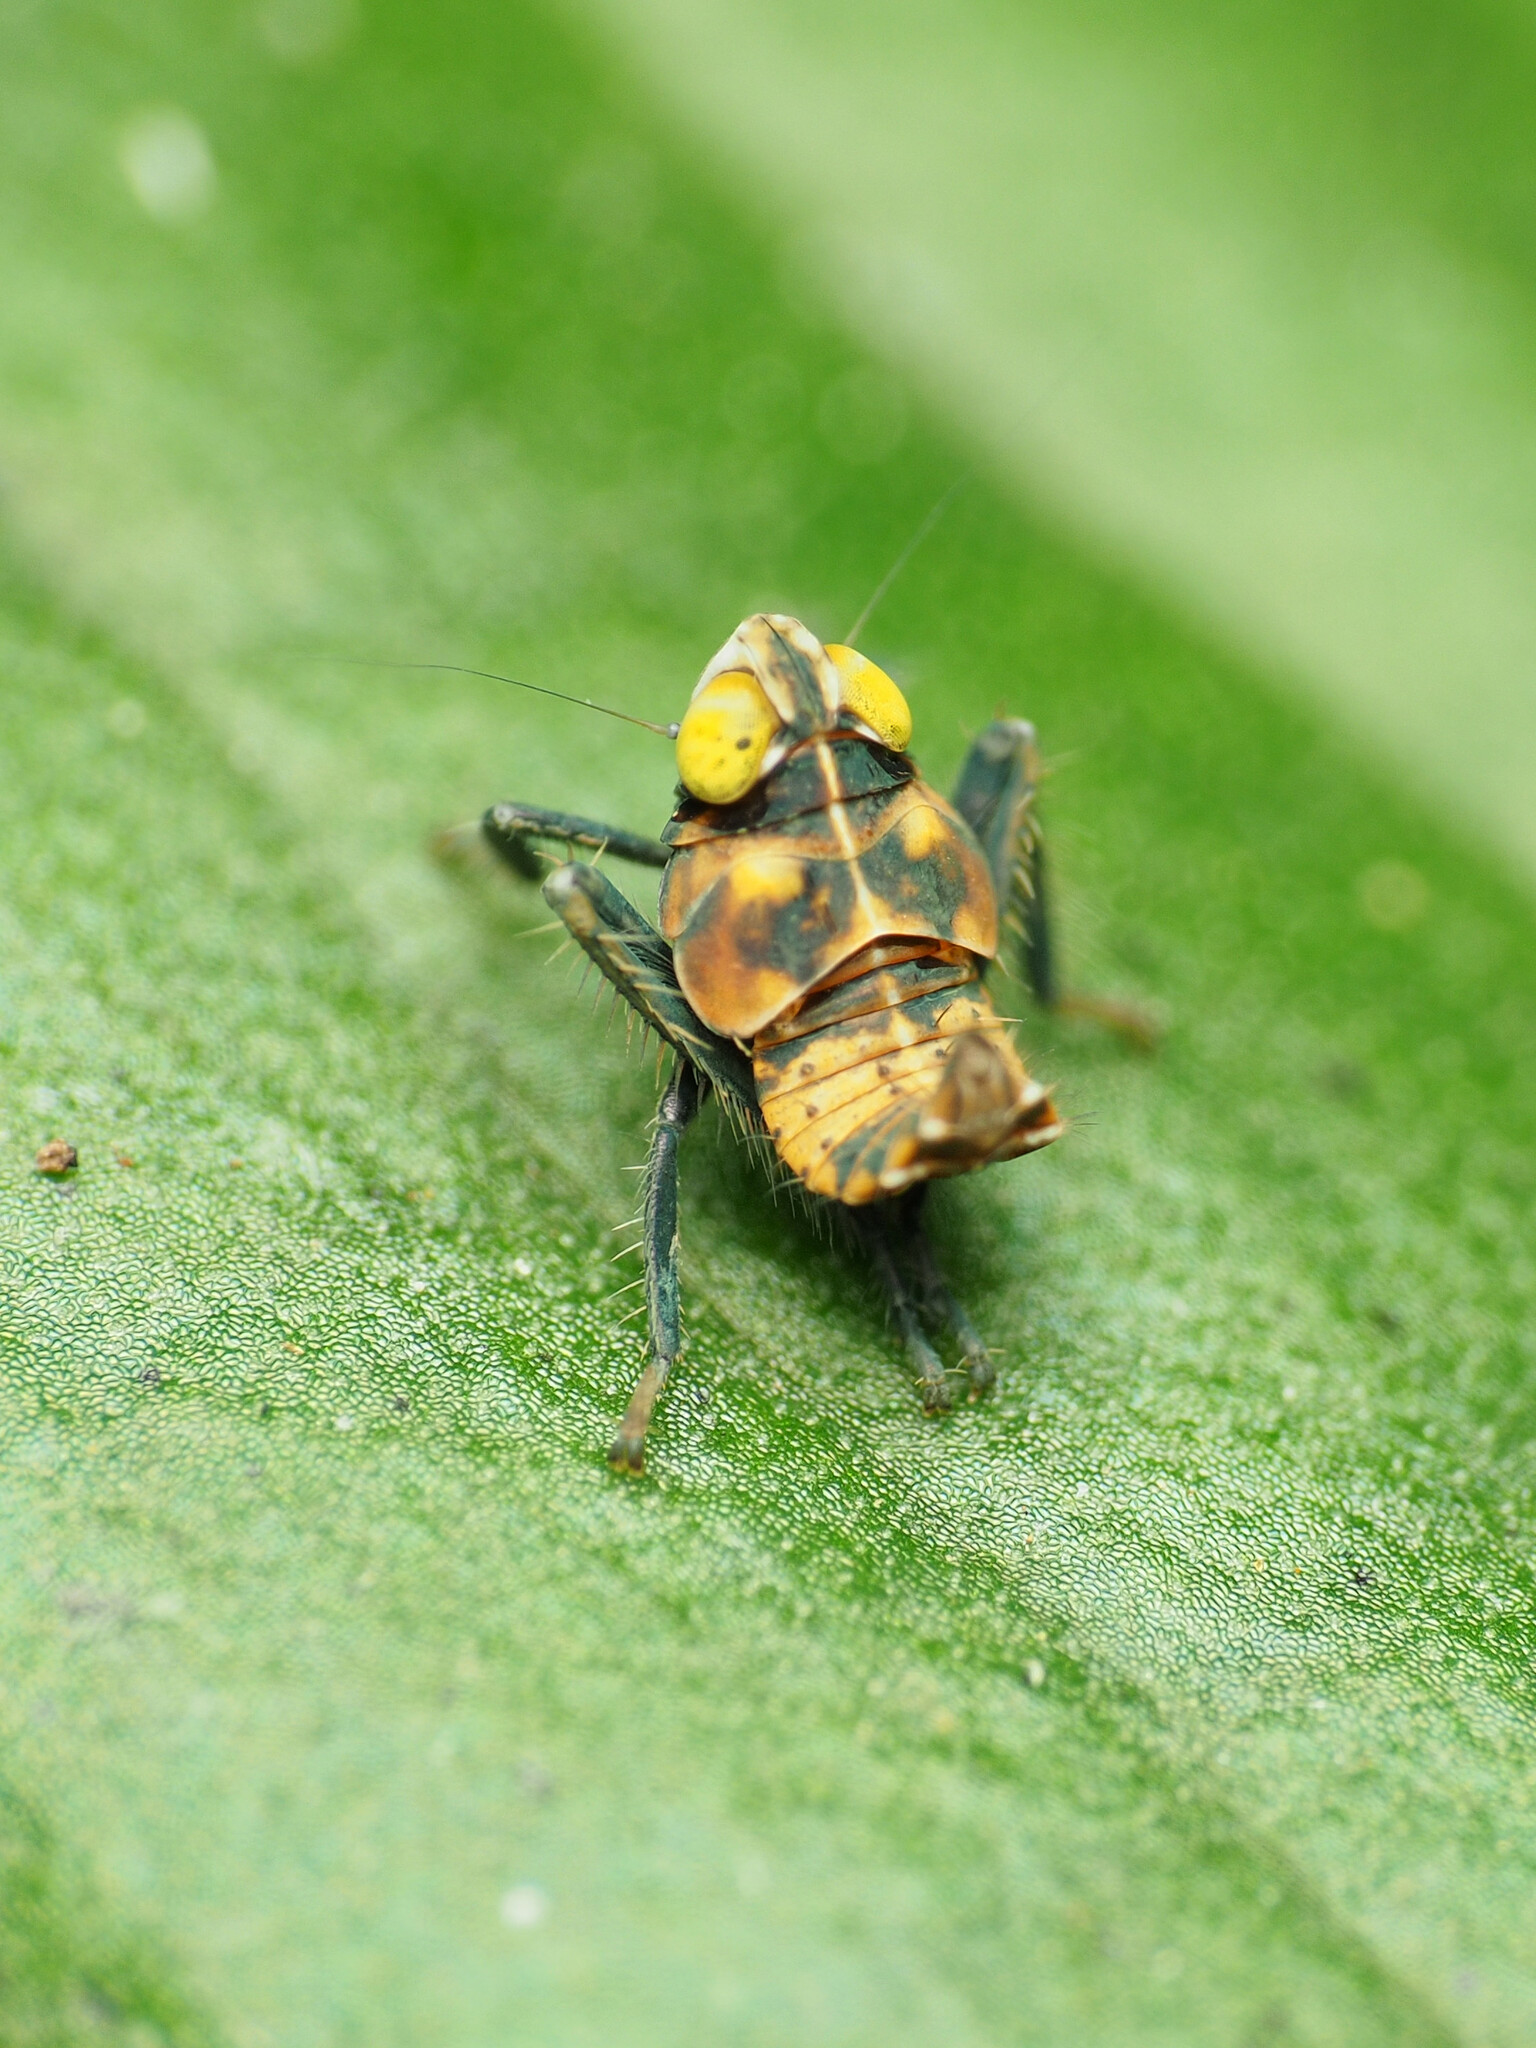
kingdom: Animalia
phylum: Arthropoda
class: Insecta
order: Hemiptera
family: Cicadellidae
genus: Jikradia
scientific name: Jikradia olitoria
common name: Coppery leafhopper
